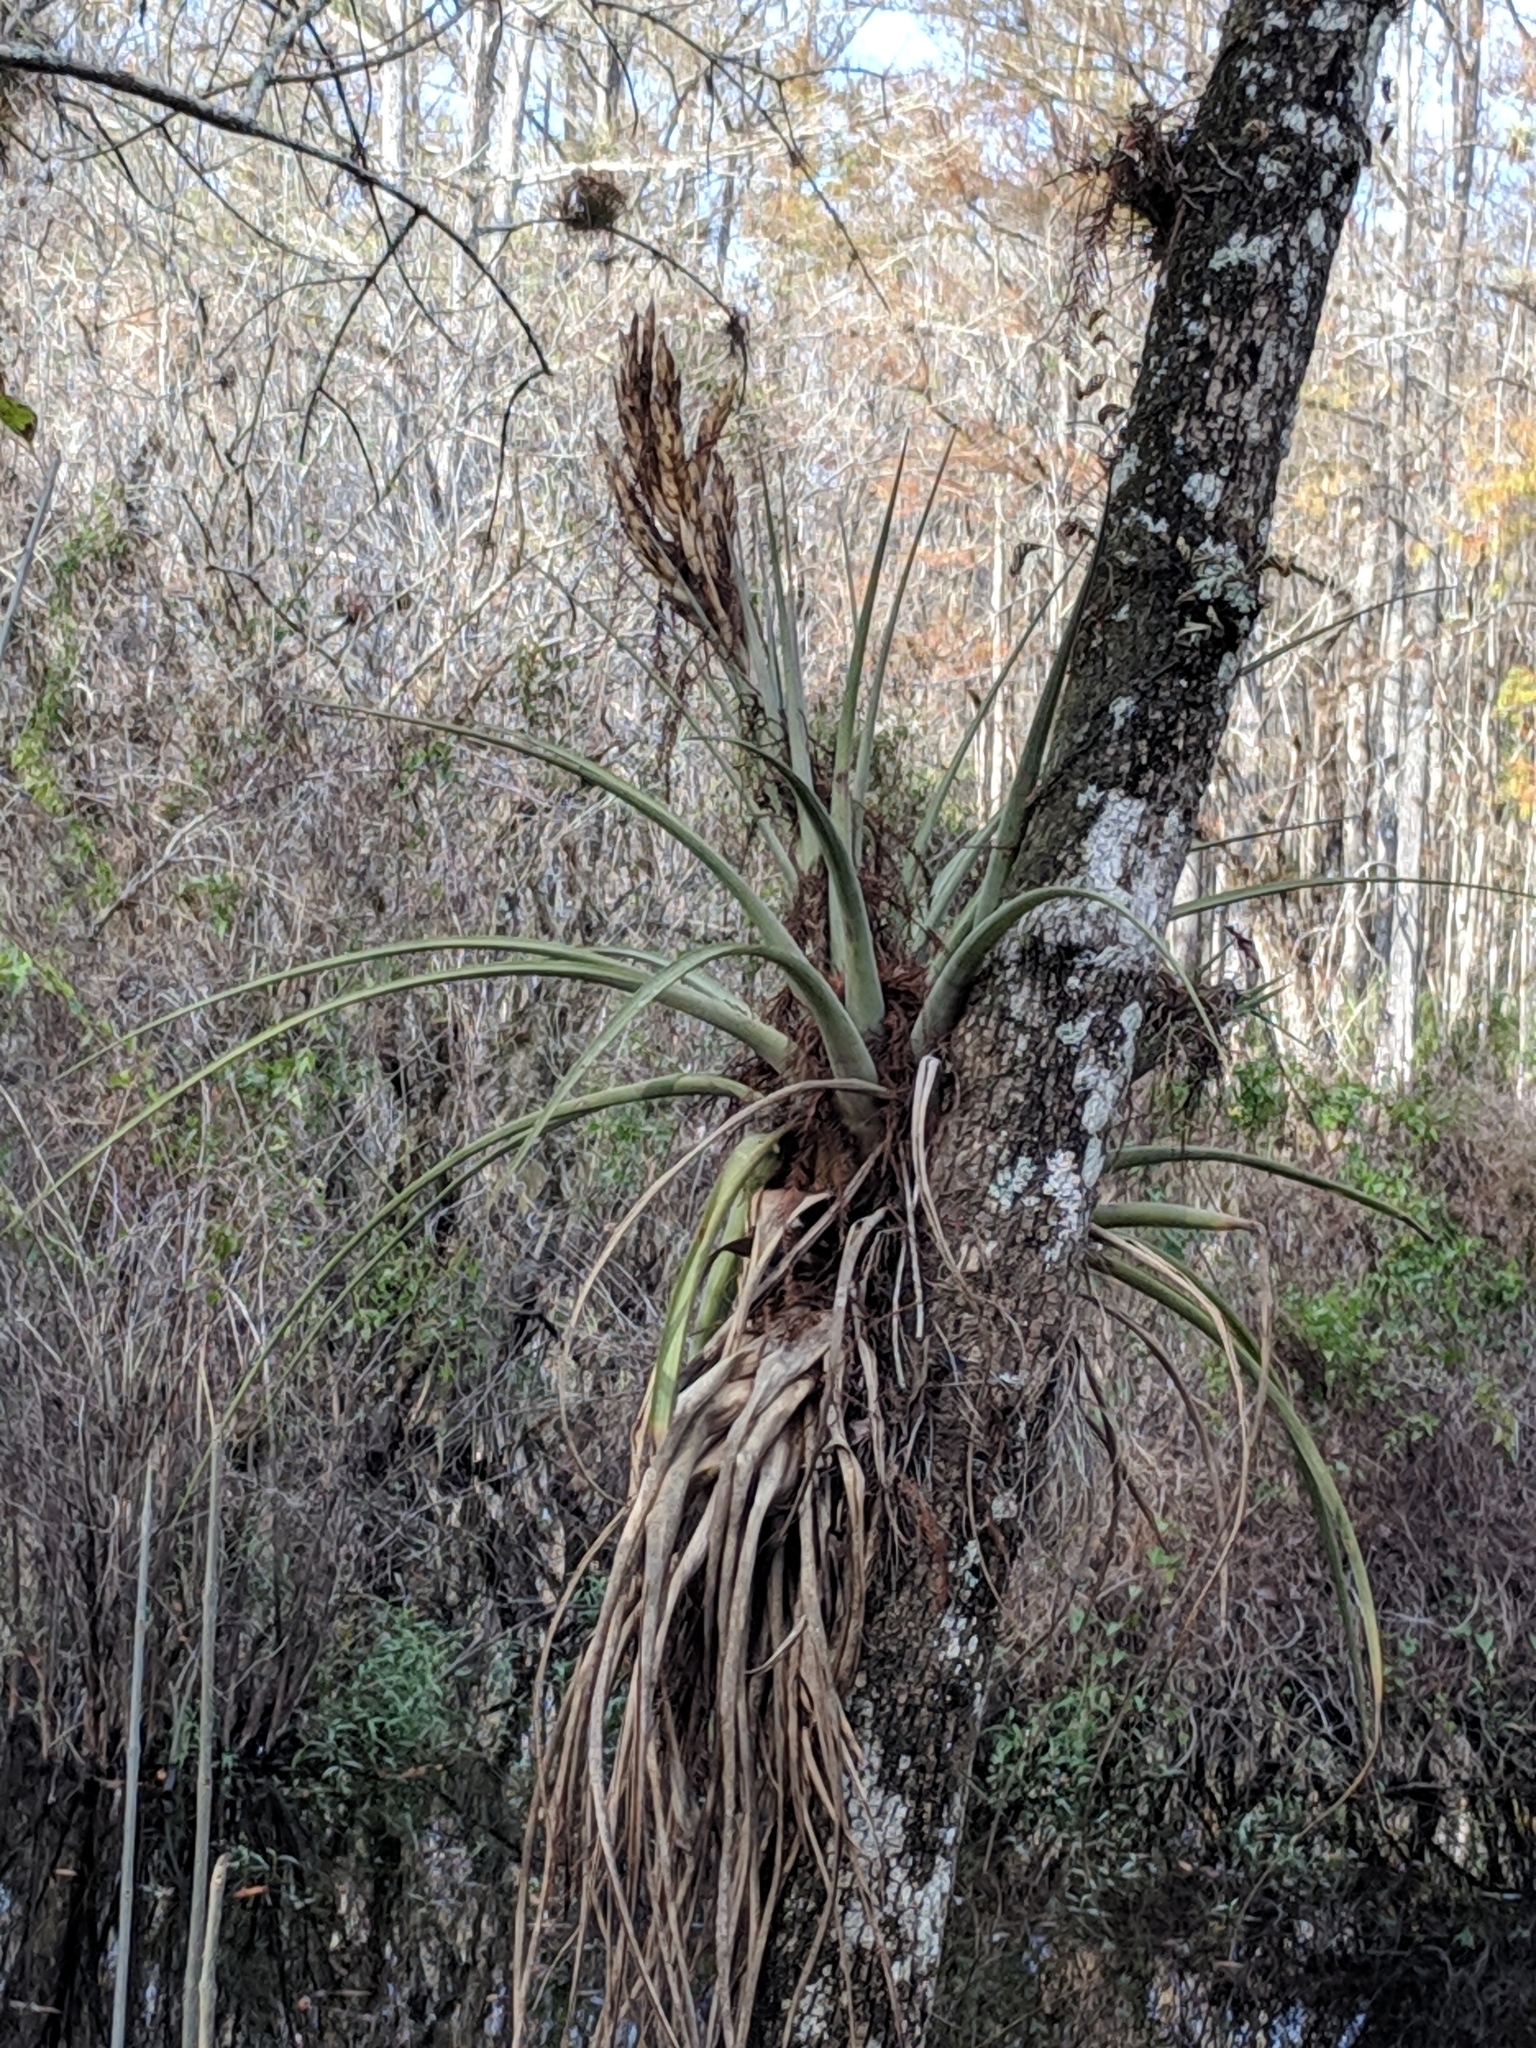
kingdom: Plantae
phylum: Tracheophyta
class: Liliopsida
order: Poales
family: Bromeliaceae
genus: Tillandsia
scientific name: Tillandsia fasciculata
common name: Giant airplant
